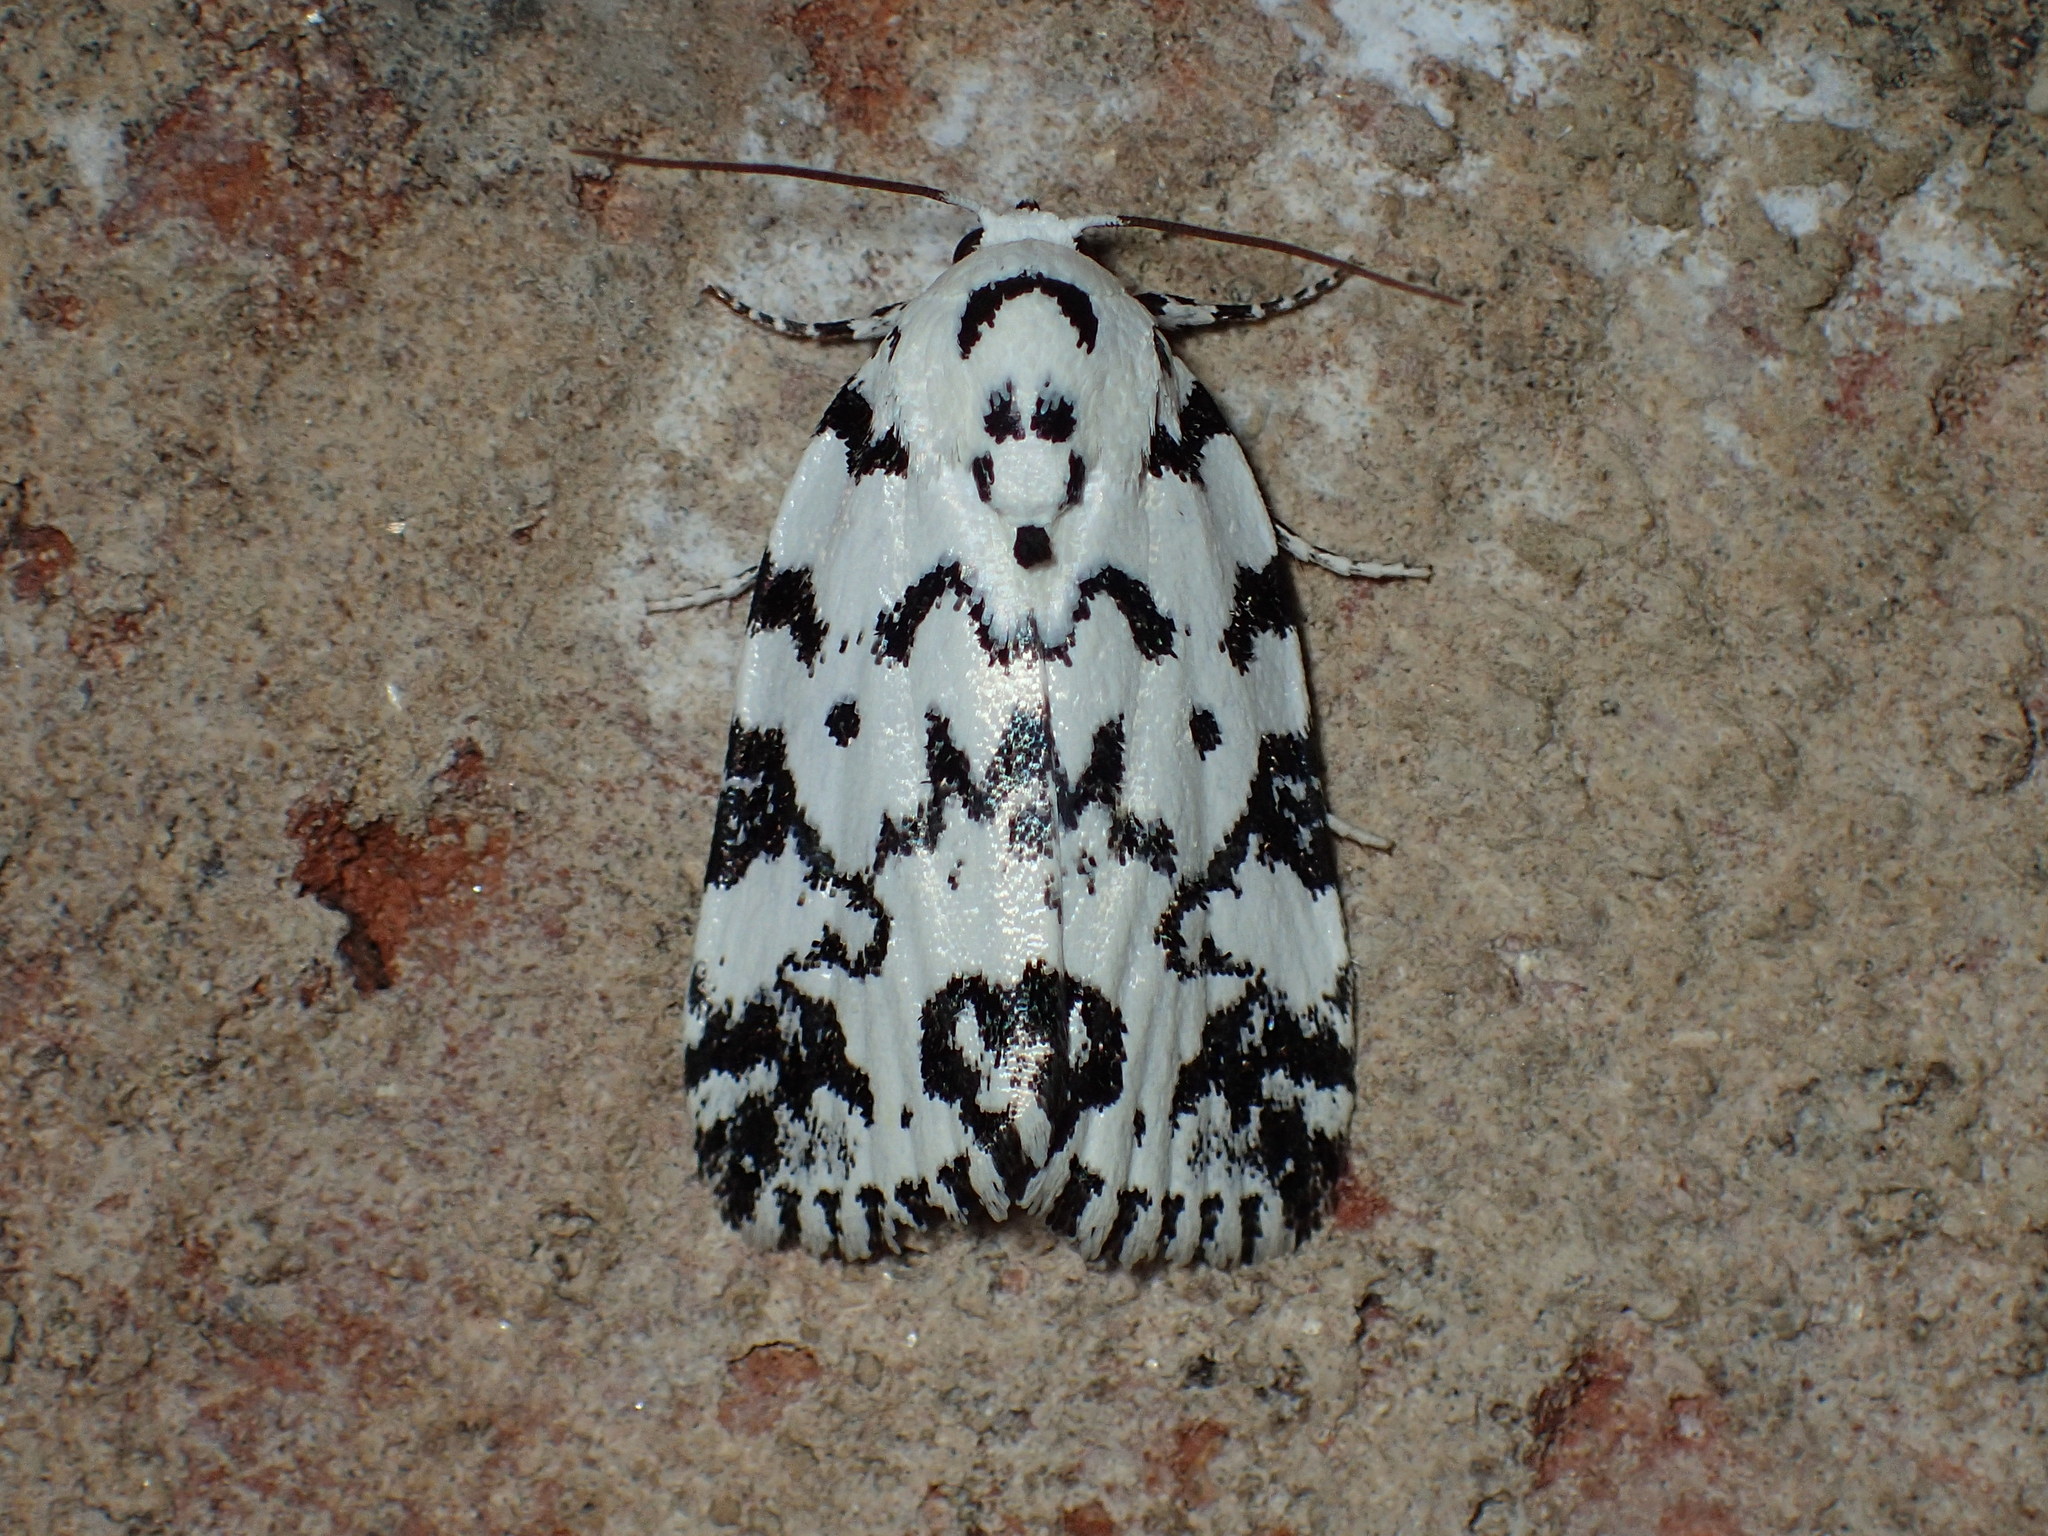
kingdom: Animalia
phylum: Arthropoda
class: Insecta
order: Lepidoptera
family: Noctuidae
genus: Polygrammate
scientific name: Polygrammate hebraeicum
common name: Hebrew moth
